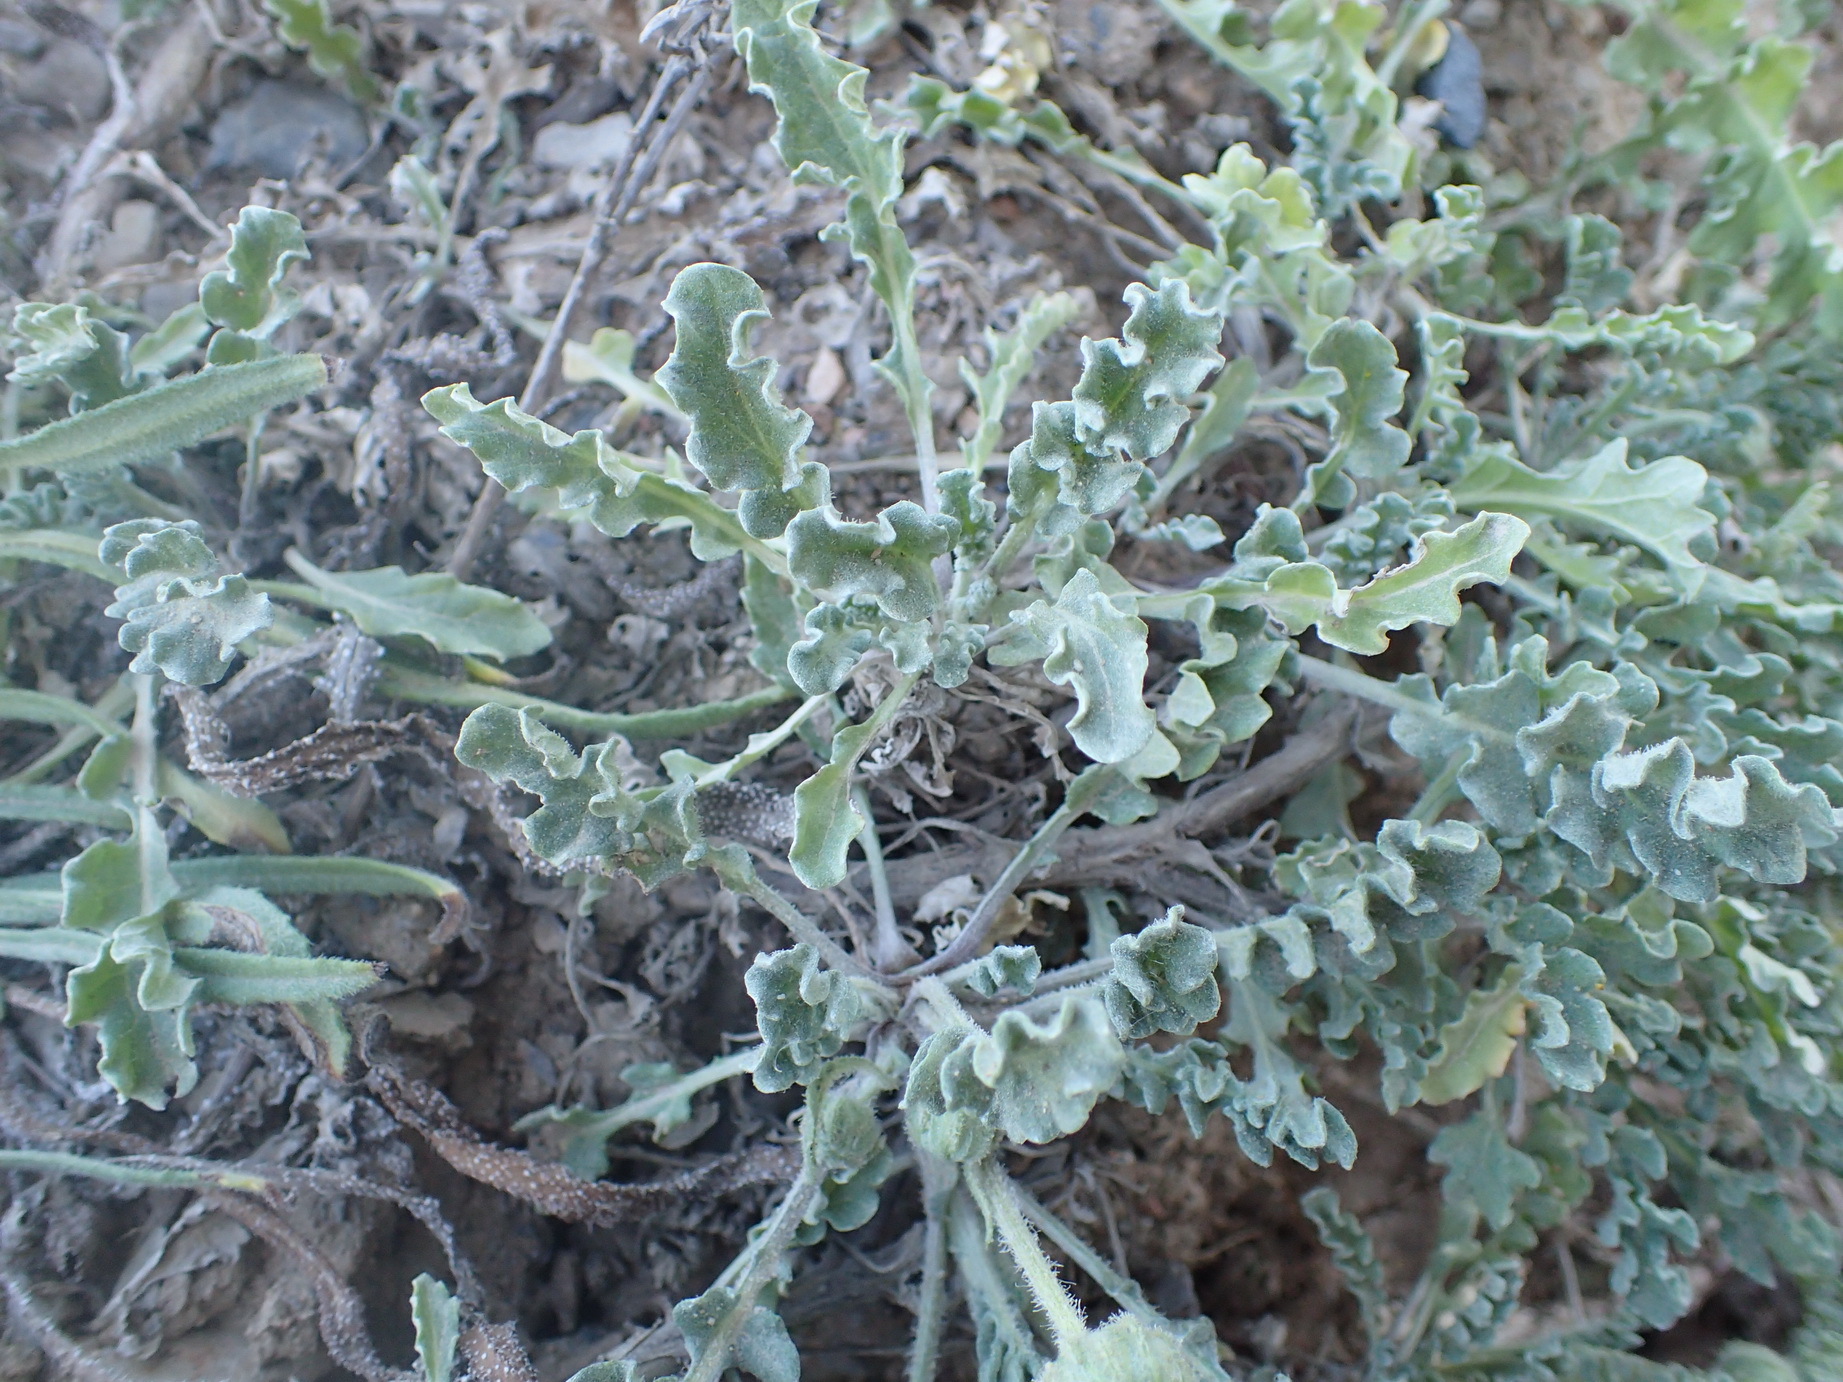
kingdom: Plantae
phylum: Tracheophyta
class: Magnoliopsida
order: Asterales
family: Asteraceae
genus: Arctotis
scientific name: Arctotis arctotoides
